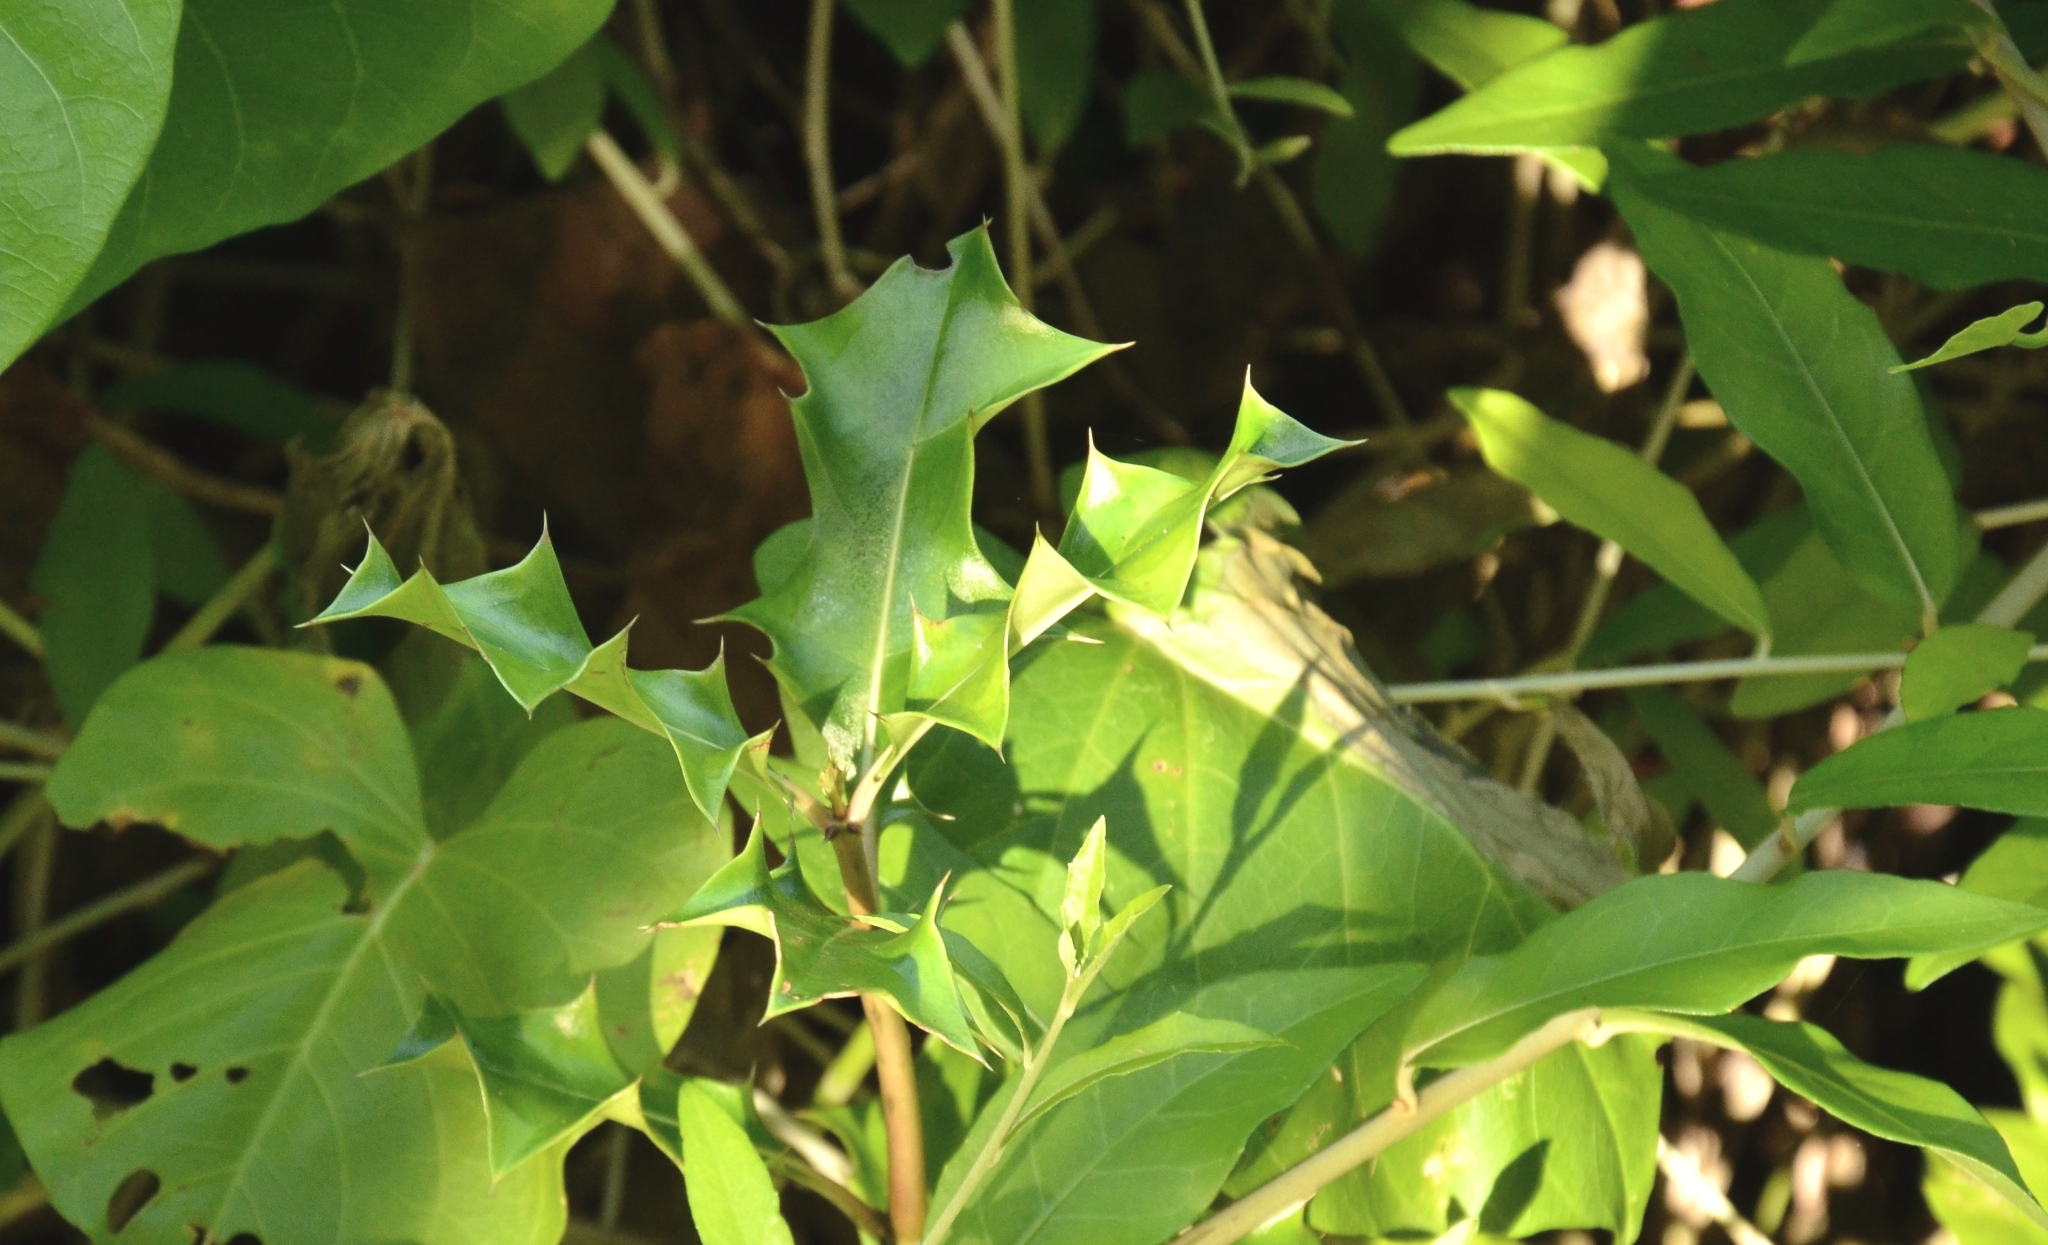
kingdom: Plantae
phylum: Tracheophyta
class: Magnoliopsida
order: Lamiales
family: Acanthaceae
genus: Acanthus
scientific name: Acanthus ilicifolius
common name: Holy mangrove
